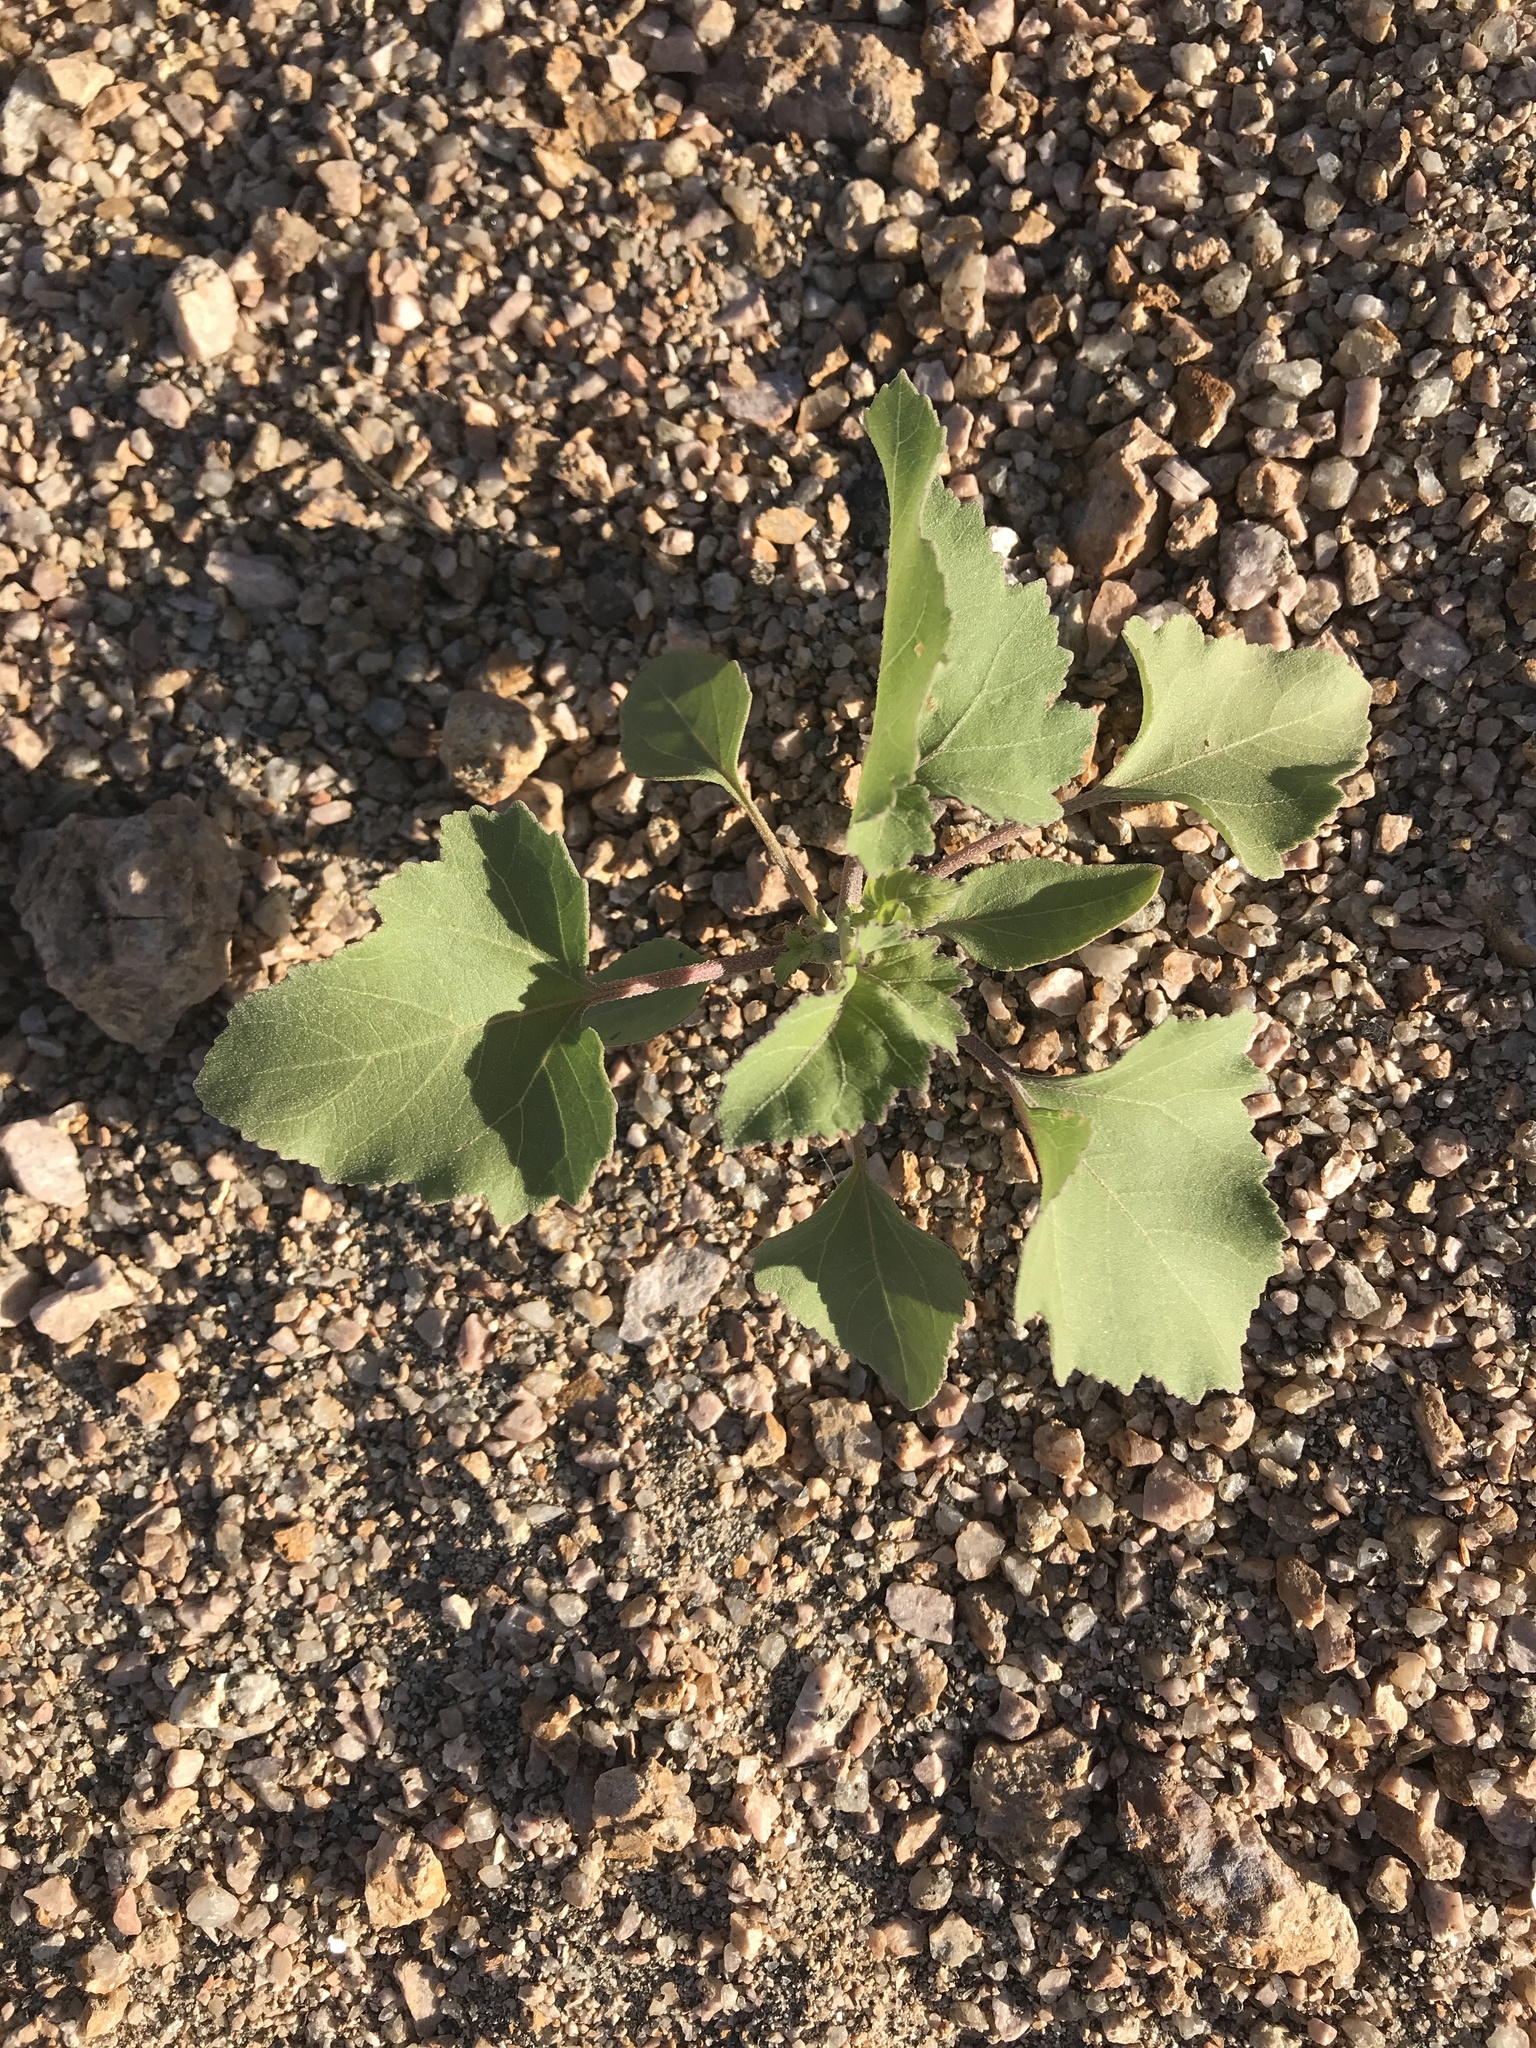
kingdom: Plantae
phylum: Tracheophyta
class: Magnoliopsida
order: Asterales
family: Asteraceae
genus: Xanthium
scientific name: Xanthium strumarium
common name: Rough cocklebur
